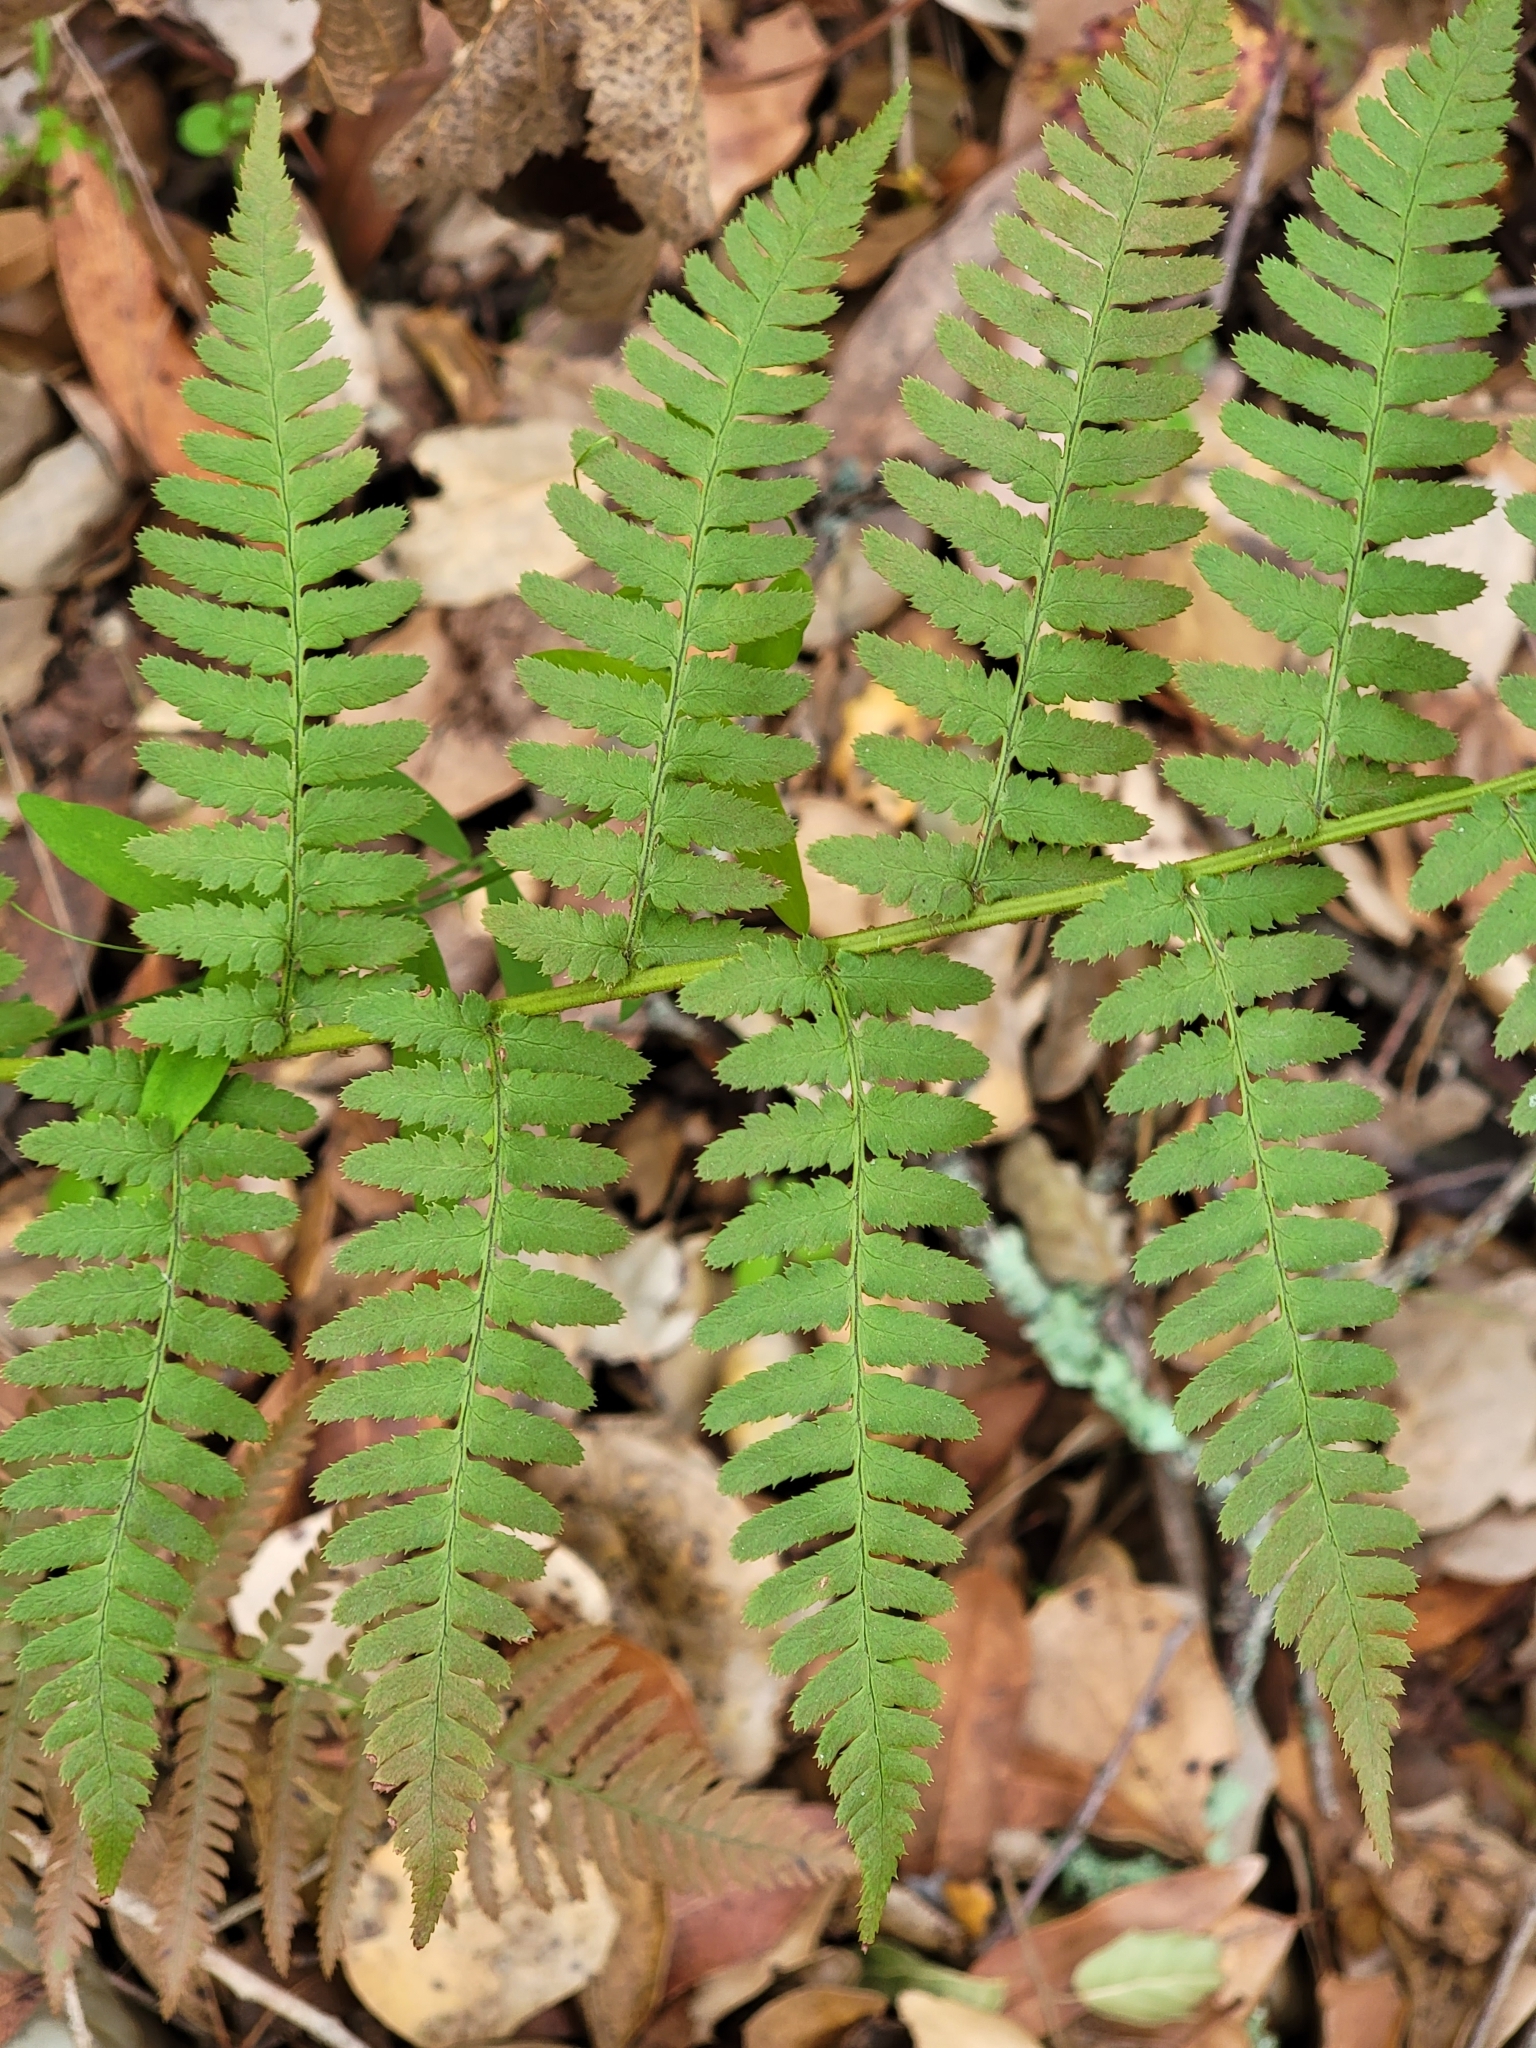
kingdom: Plantae
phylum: Tracheophyta
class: Polypodiopsida
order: Polypodiales
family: Dryopteridaceae
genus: Dryopteris
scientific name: Dryopteris arguta
